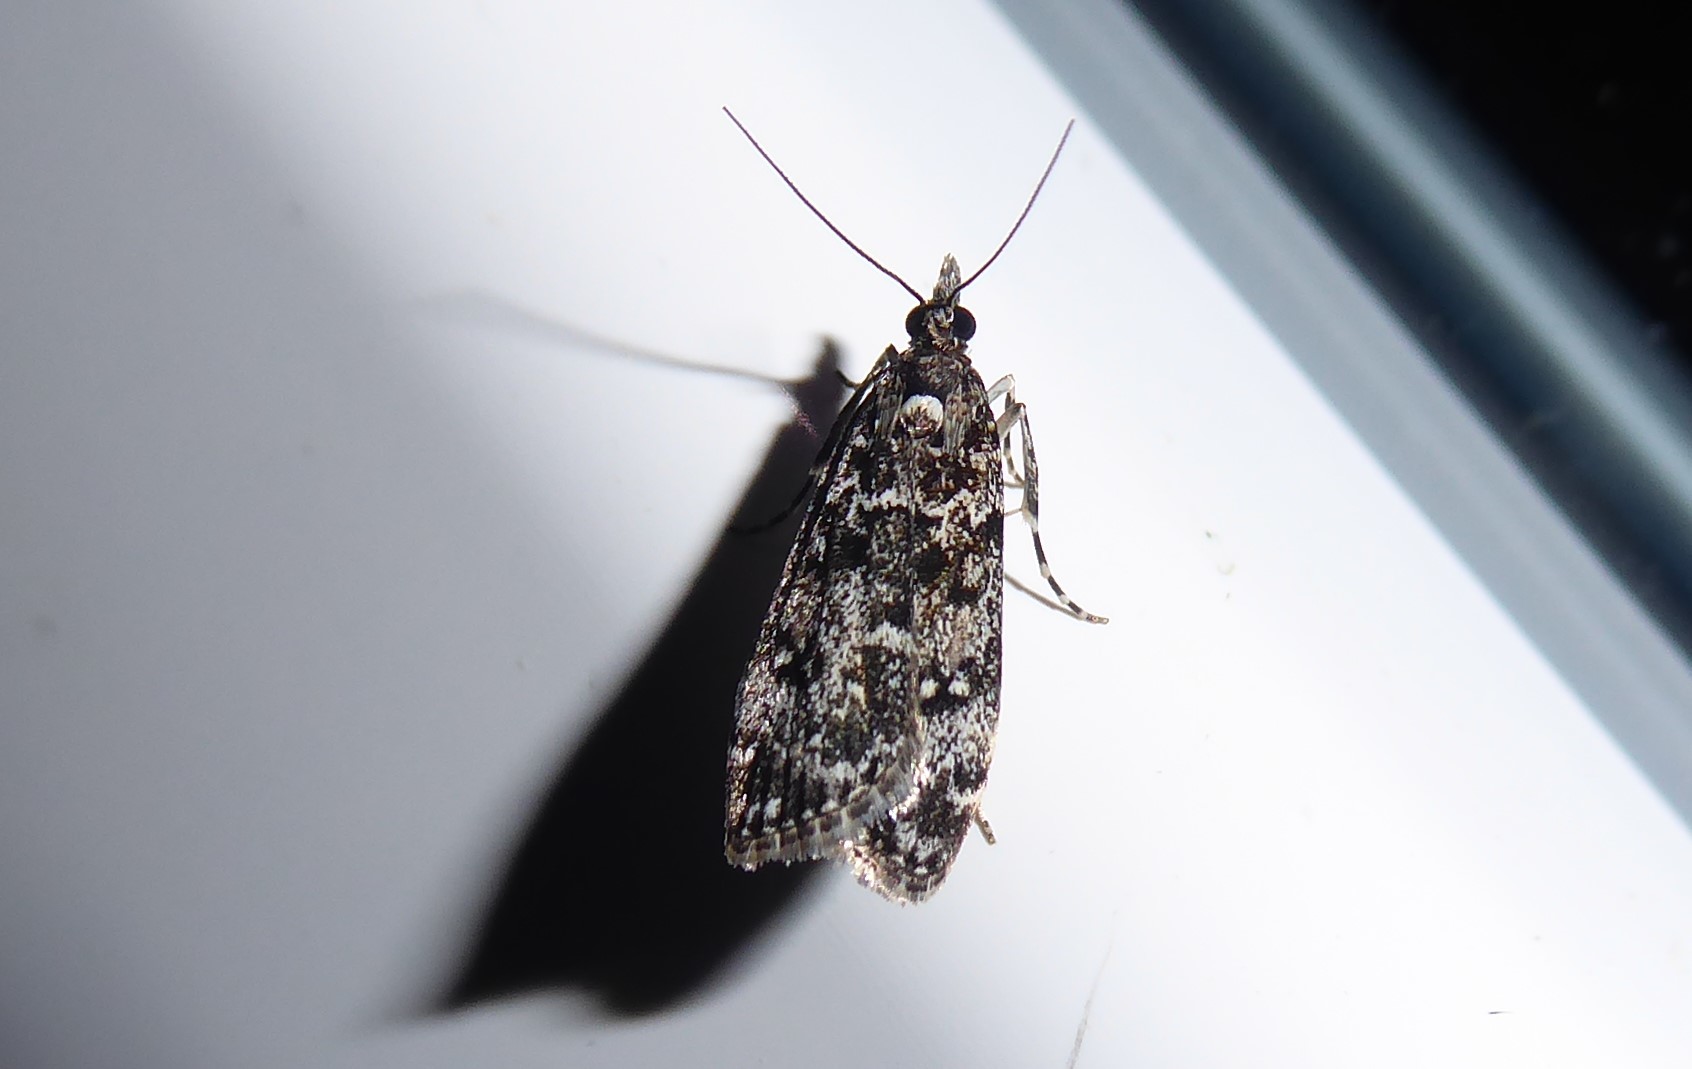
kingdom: Animalia
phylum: Arthropoda
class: Insecta
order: Lepidoptera
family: Crambidae
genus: Eudonia
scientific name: Eudonia philerga
